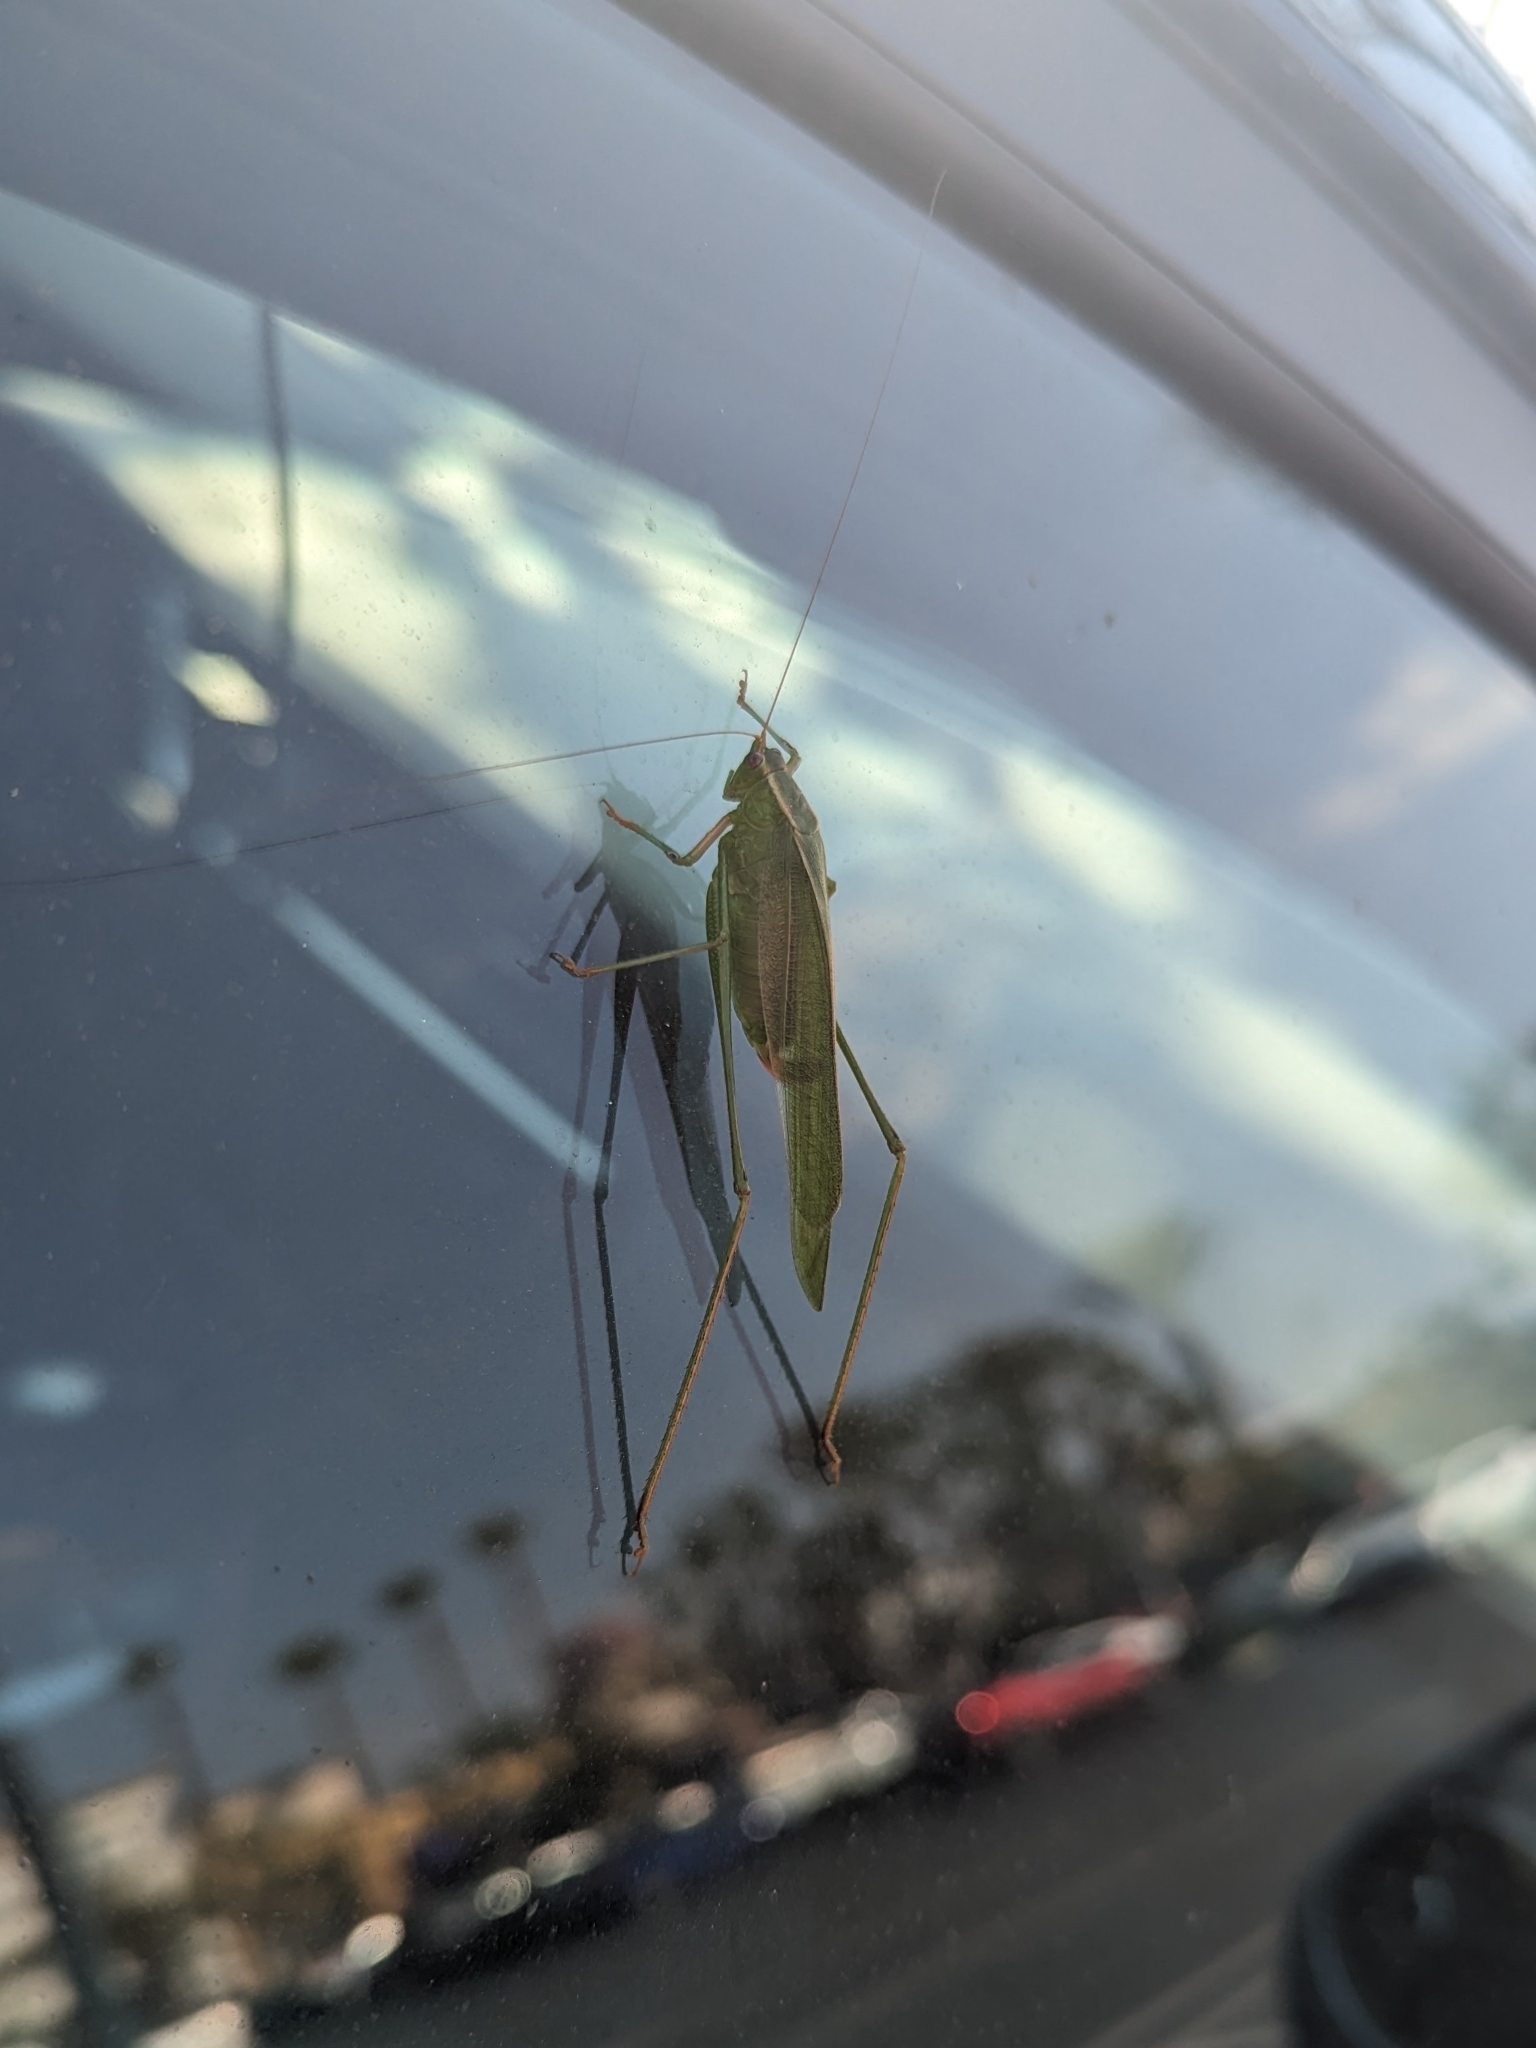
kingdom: Animalia
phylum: Arthropoda
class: Insecta
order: Orthoptera
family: Tettigoniidae
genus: Scudderia
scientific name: Scudderia mexicana
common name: Mexican bush katydid
